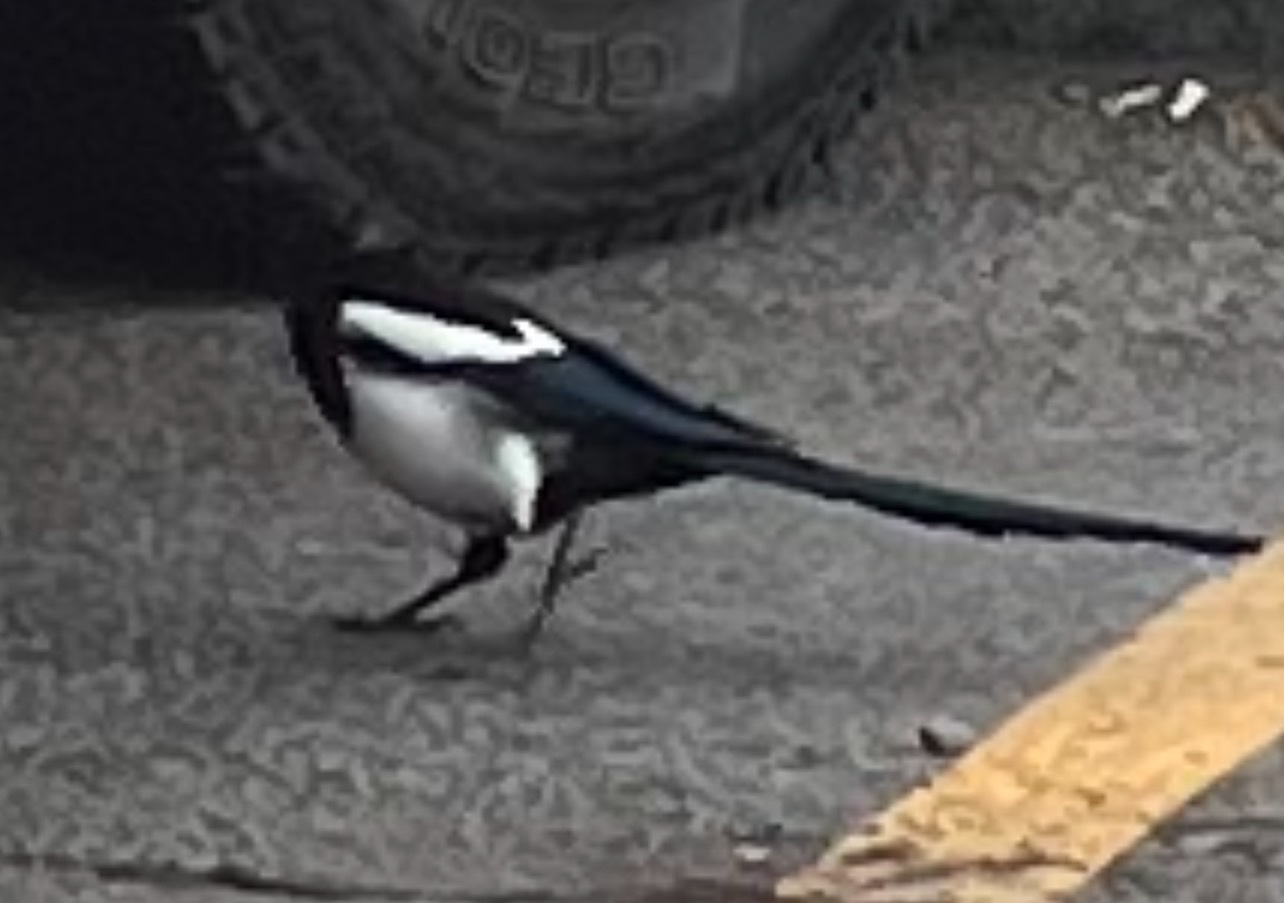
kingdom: Animalia
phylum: Chordata
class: Aves
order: Passeriformes
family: Corvidae
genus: Pica
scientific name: Pica hudsonia
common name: Black-billed magpie
